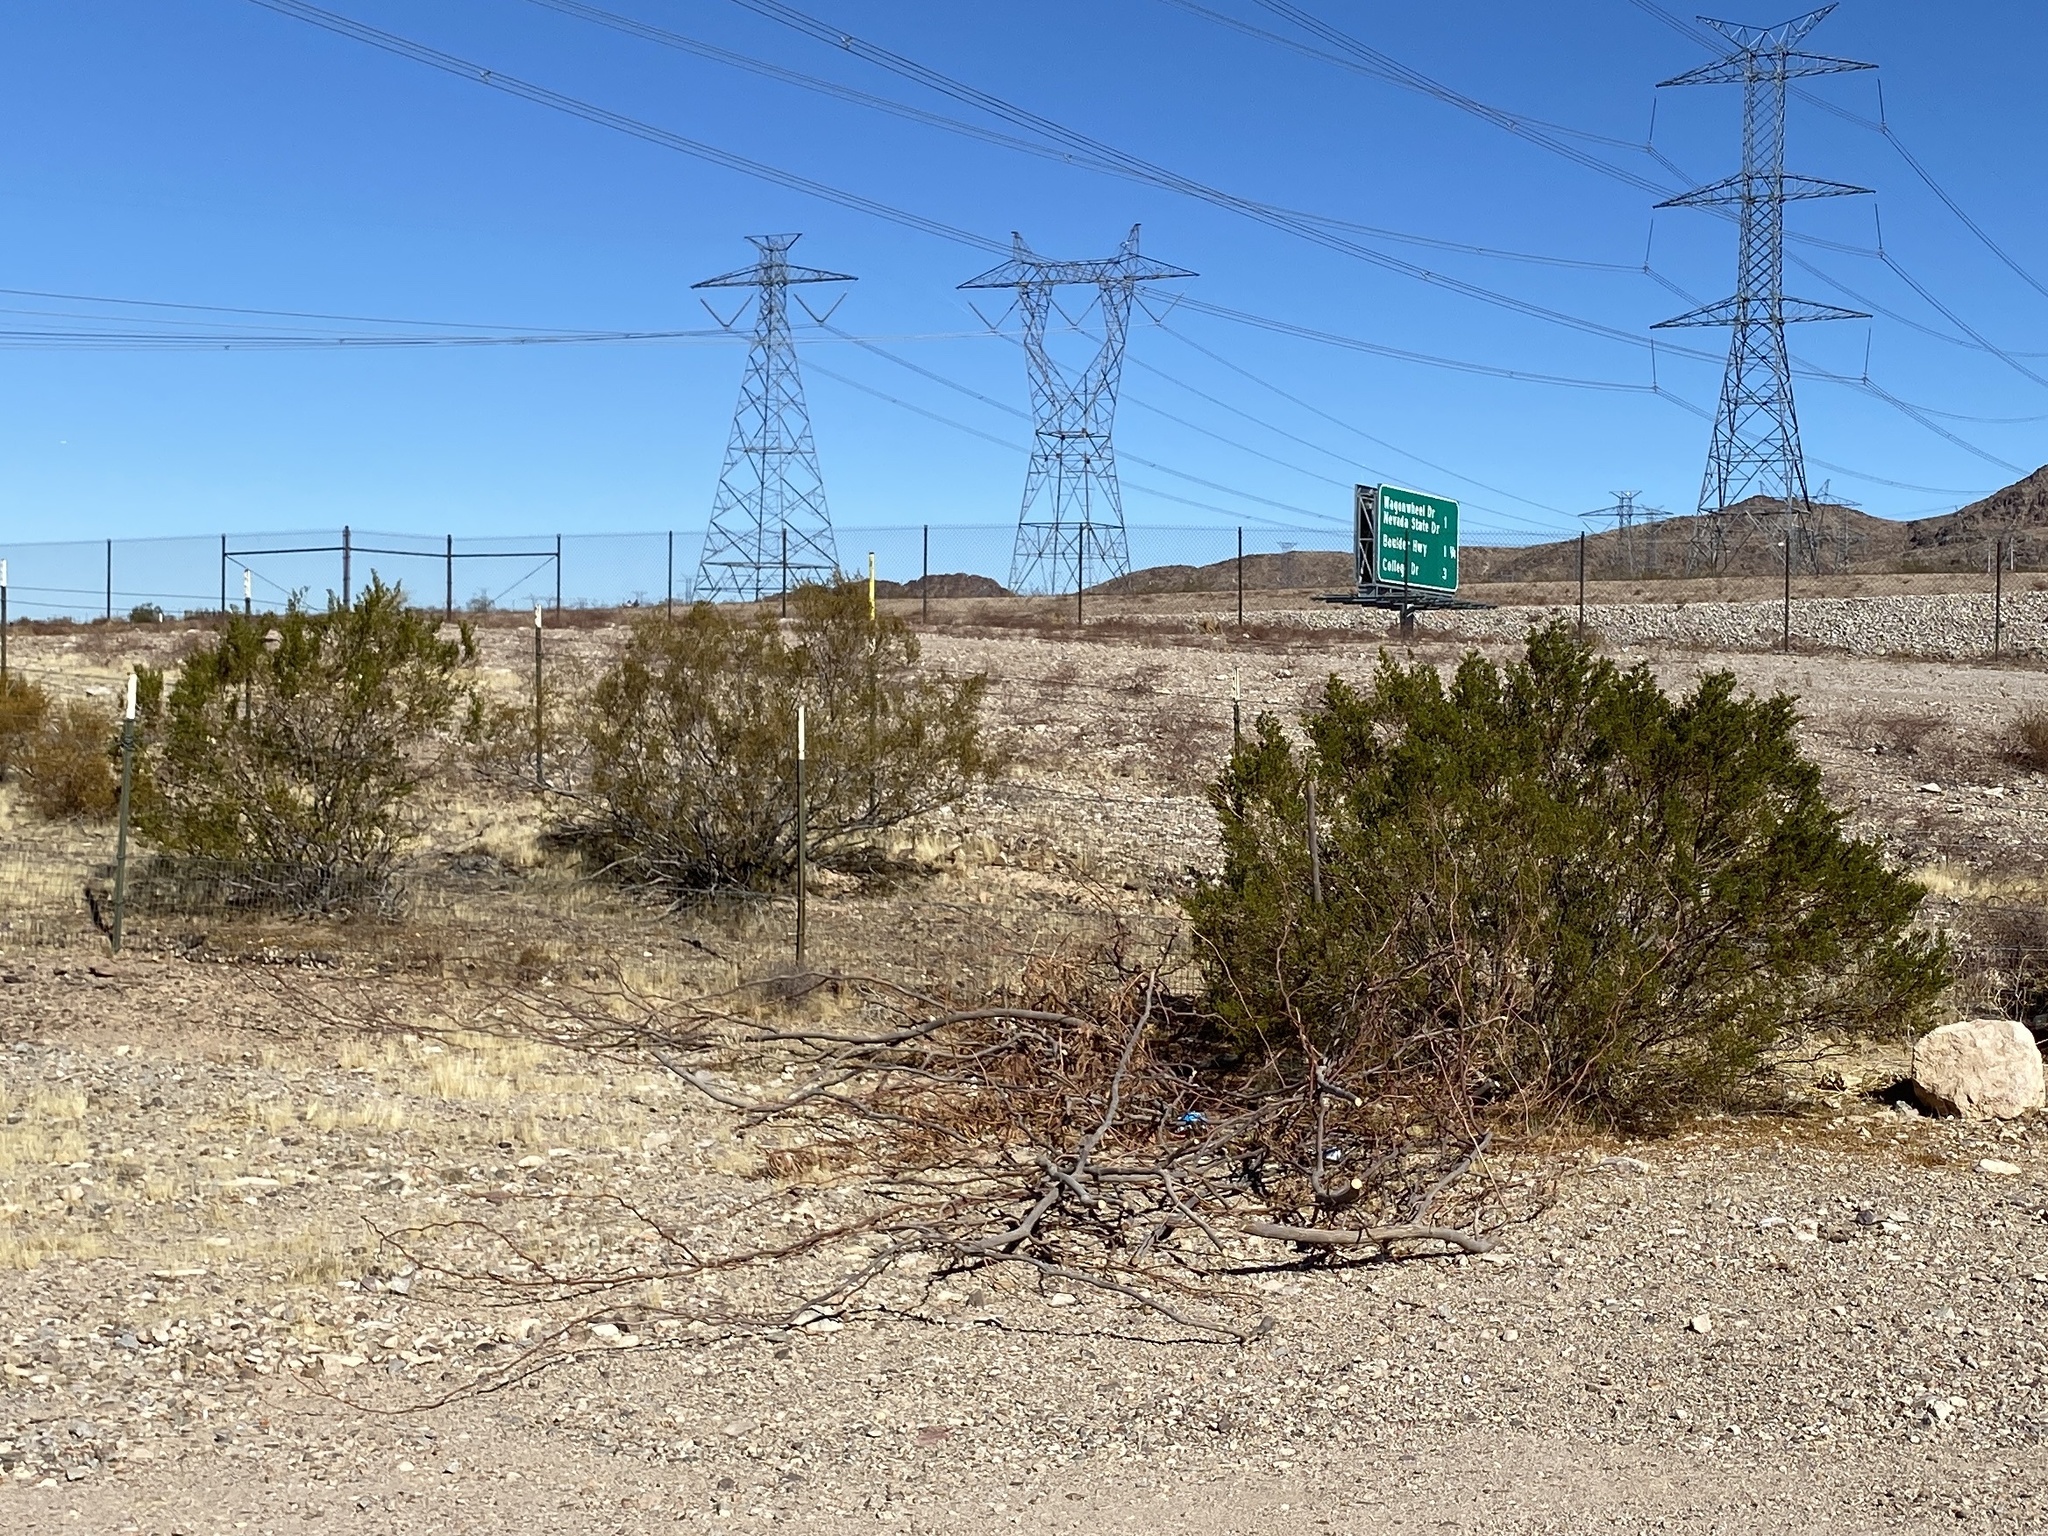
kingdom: Plantae
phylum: Tracheophyta
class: Magnoliopsida
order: Zygophyllales
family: Zygophyllaceae
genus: Larrea
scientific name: Larrea tridentata
